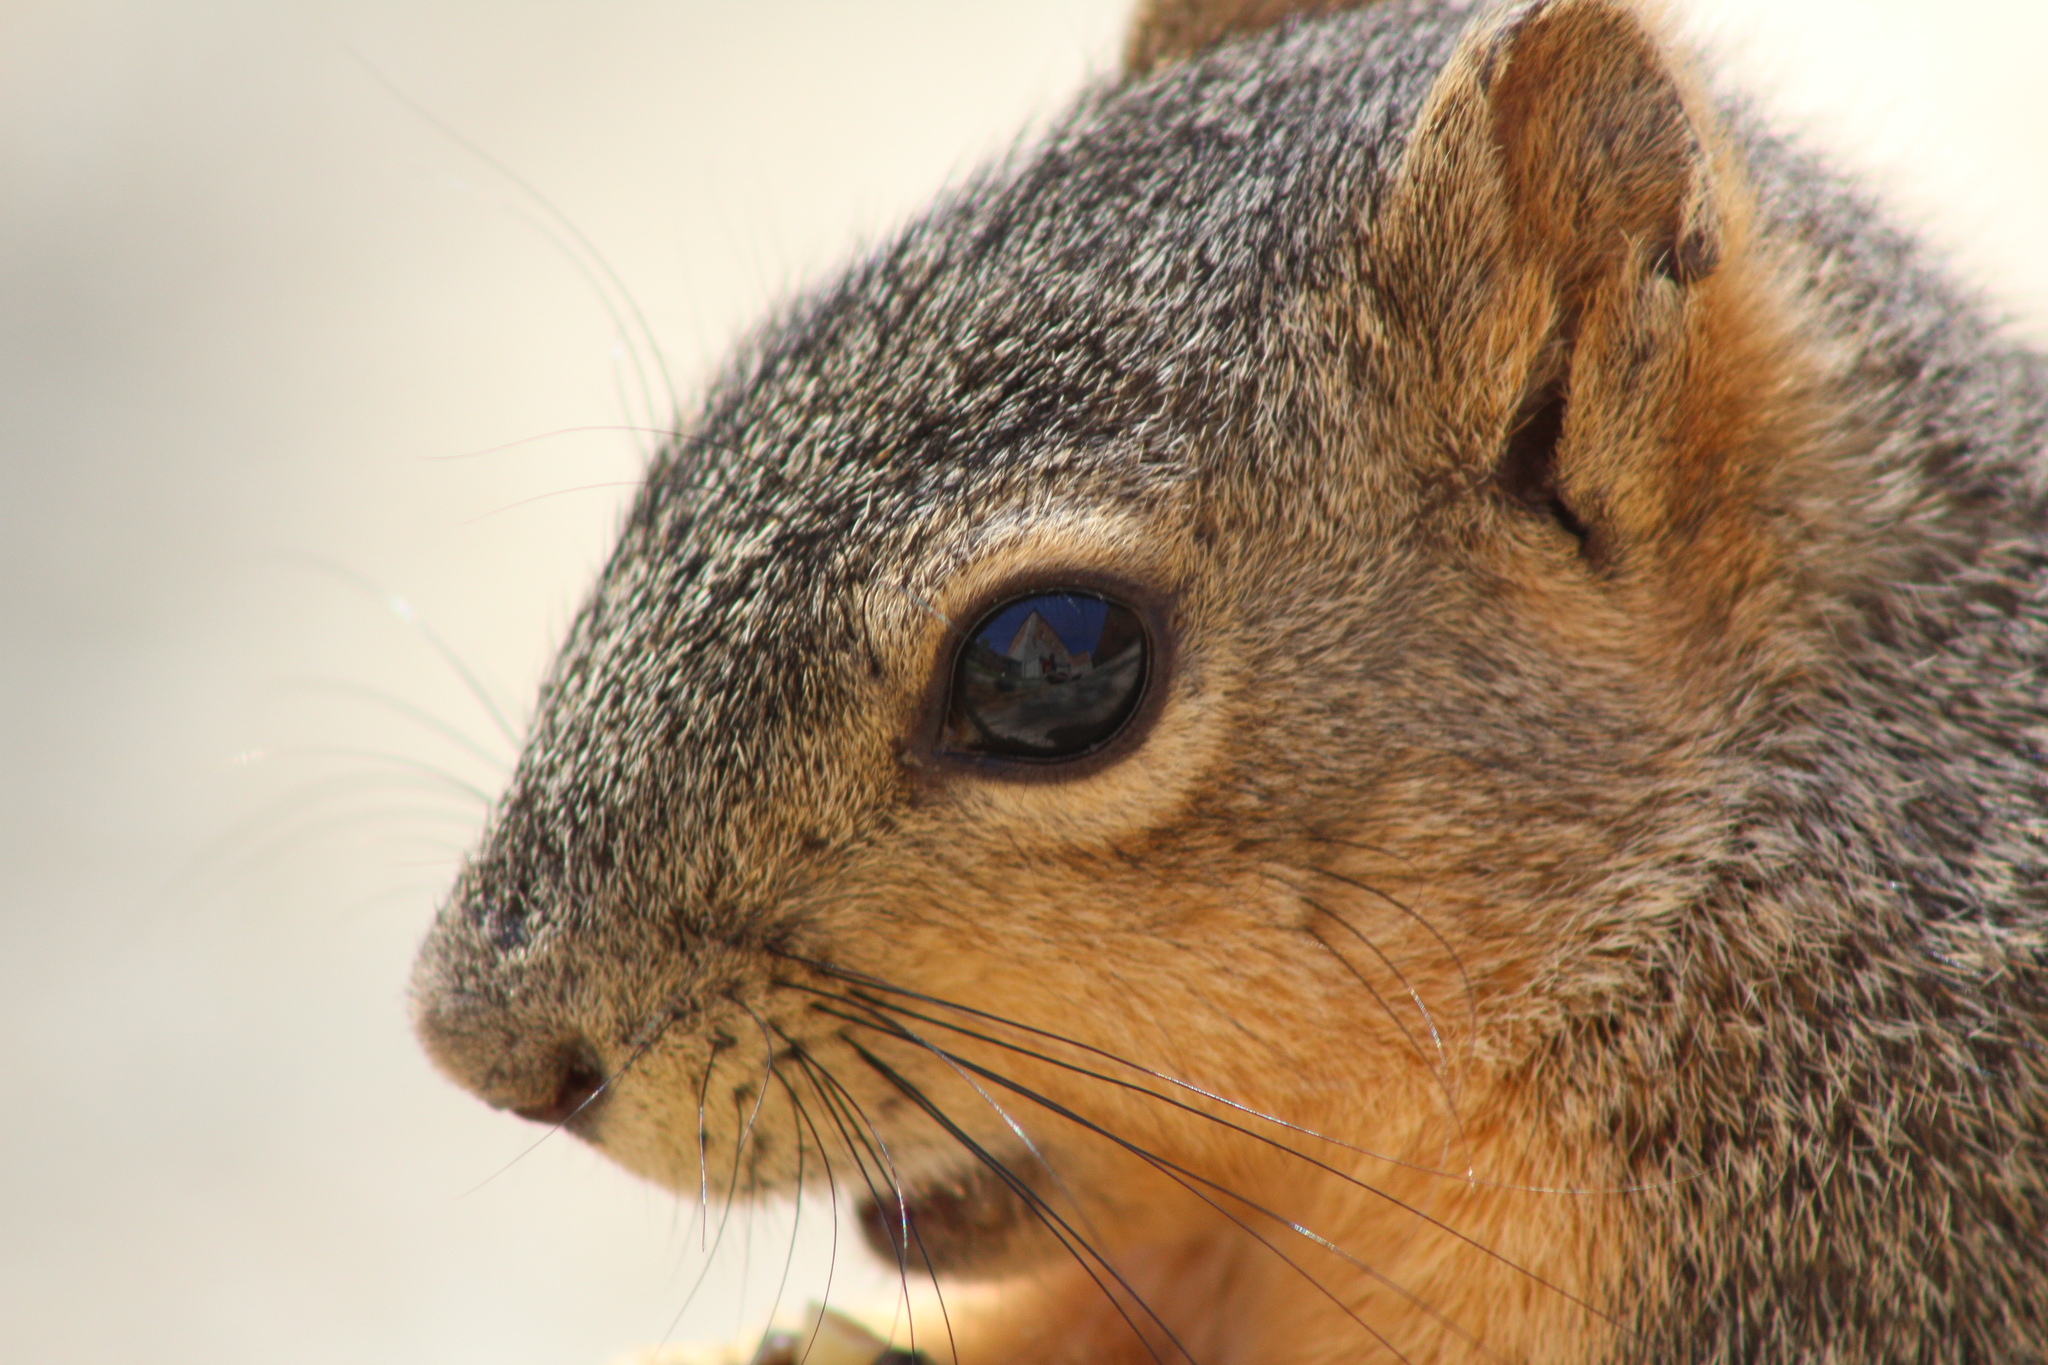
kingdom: Animalia
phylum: Chordata
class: Mammalia
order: Rodentia
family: Sciuridae
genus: Sciurus
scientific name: Sciurus niger
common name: Fox squirrel
